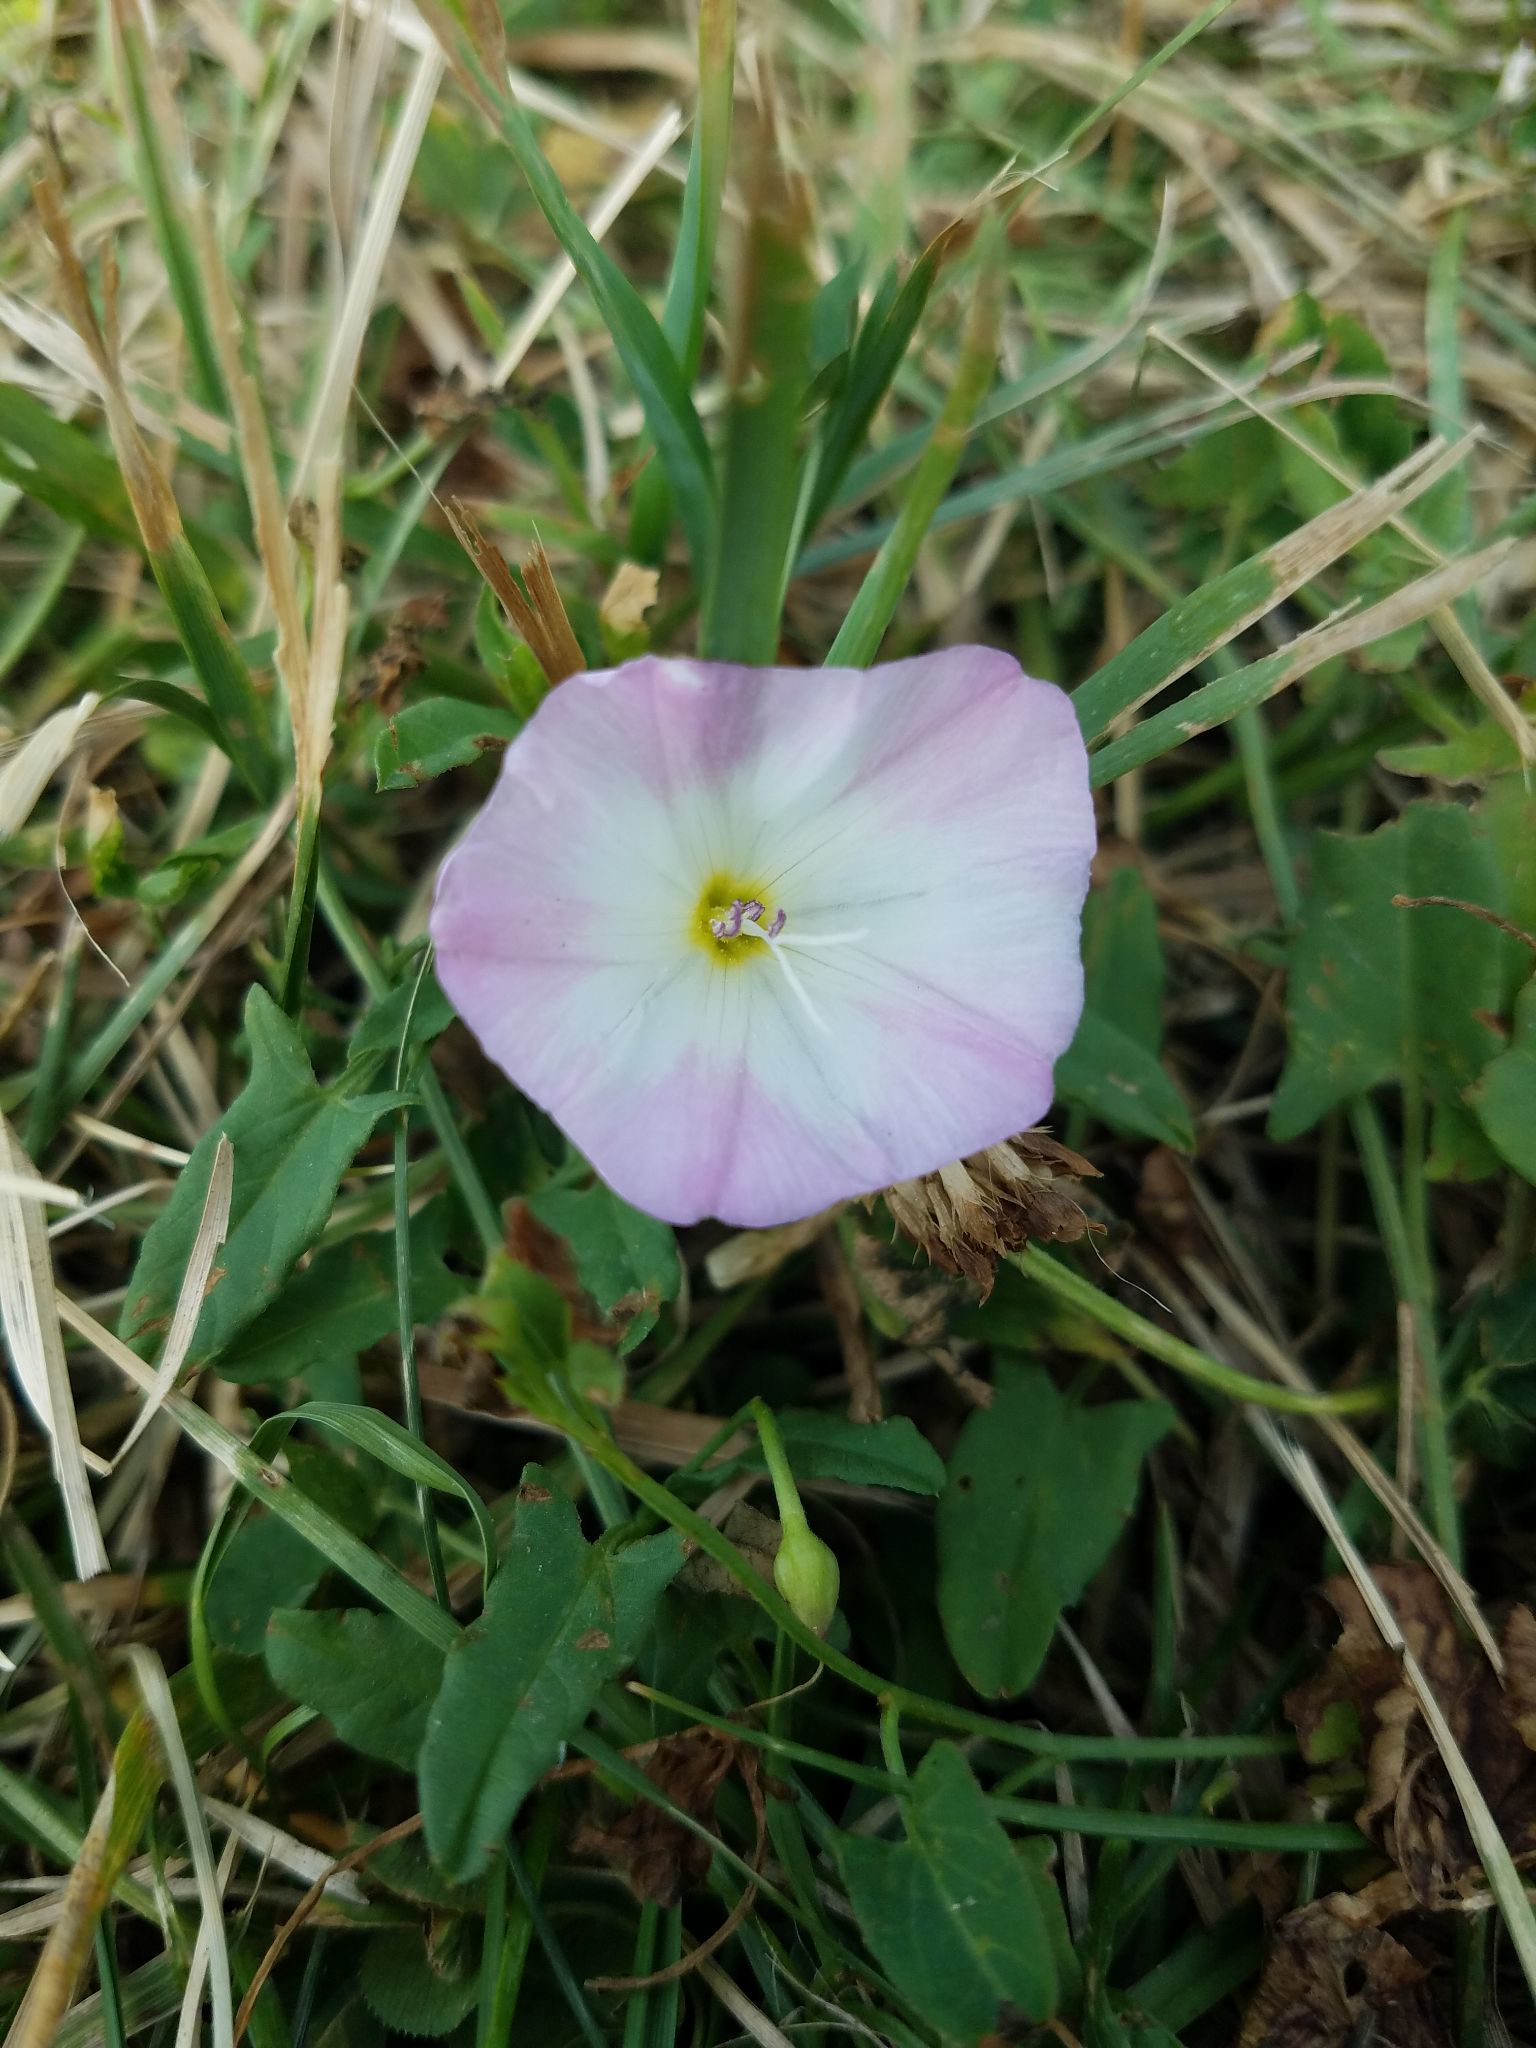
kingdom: Plantae
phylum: Tracheophyta
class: Magnoliopsida
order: Solanales
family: Convolvulaceae
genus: Convolvulus
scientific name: Convolvulus arvensis
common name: Field bindweed
